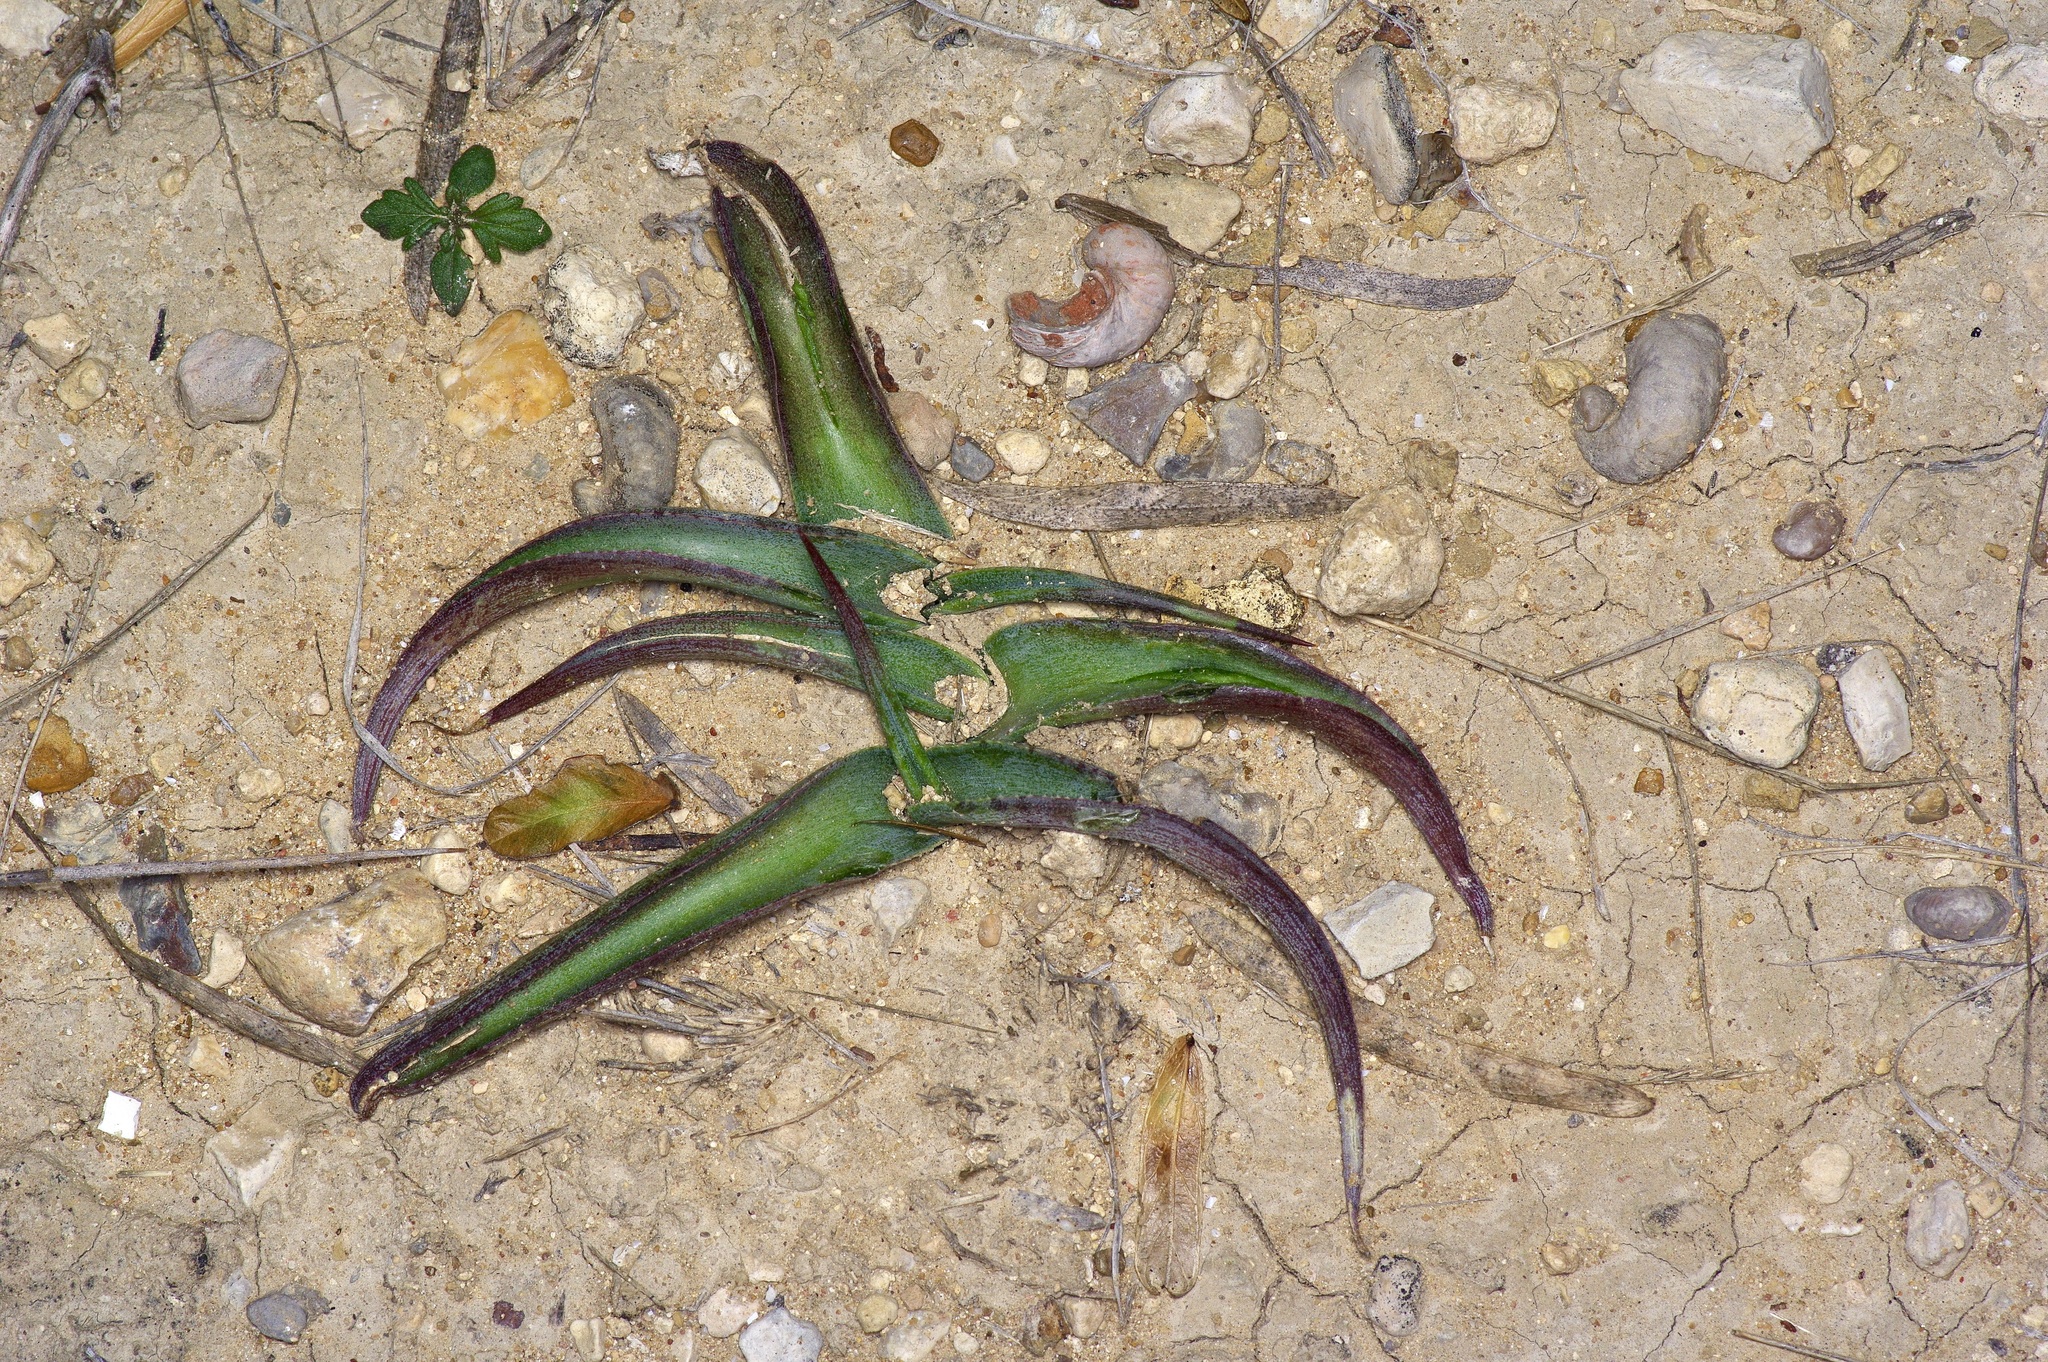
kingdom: Plantae
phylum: Tracheophyta
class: Liliopsida
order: Asparagales
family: Asparagaceae
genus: Agave
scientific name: Agave maculata
